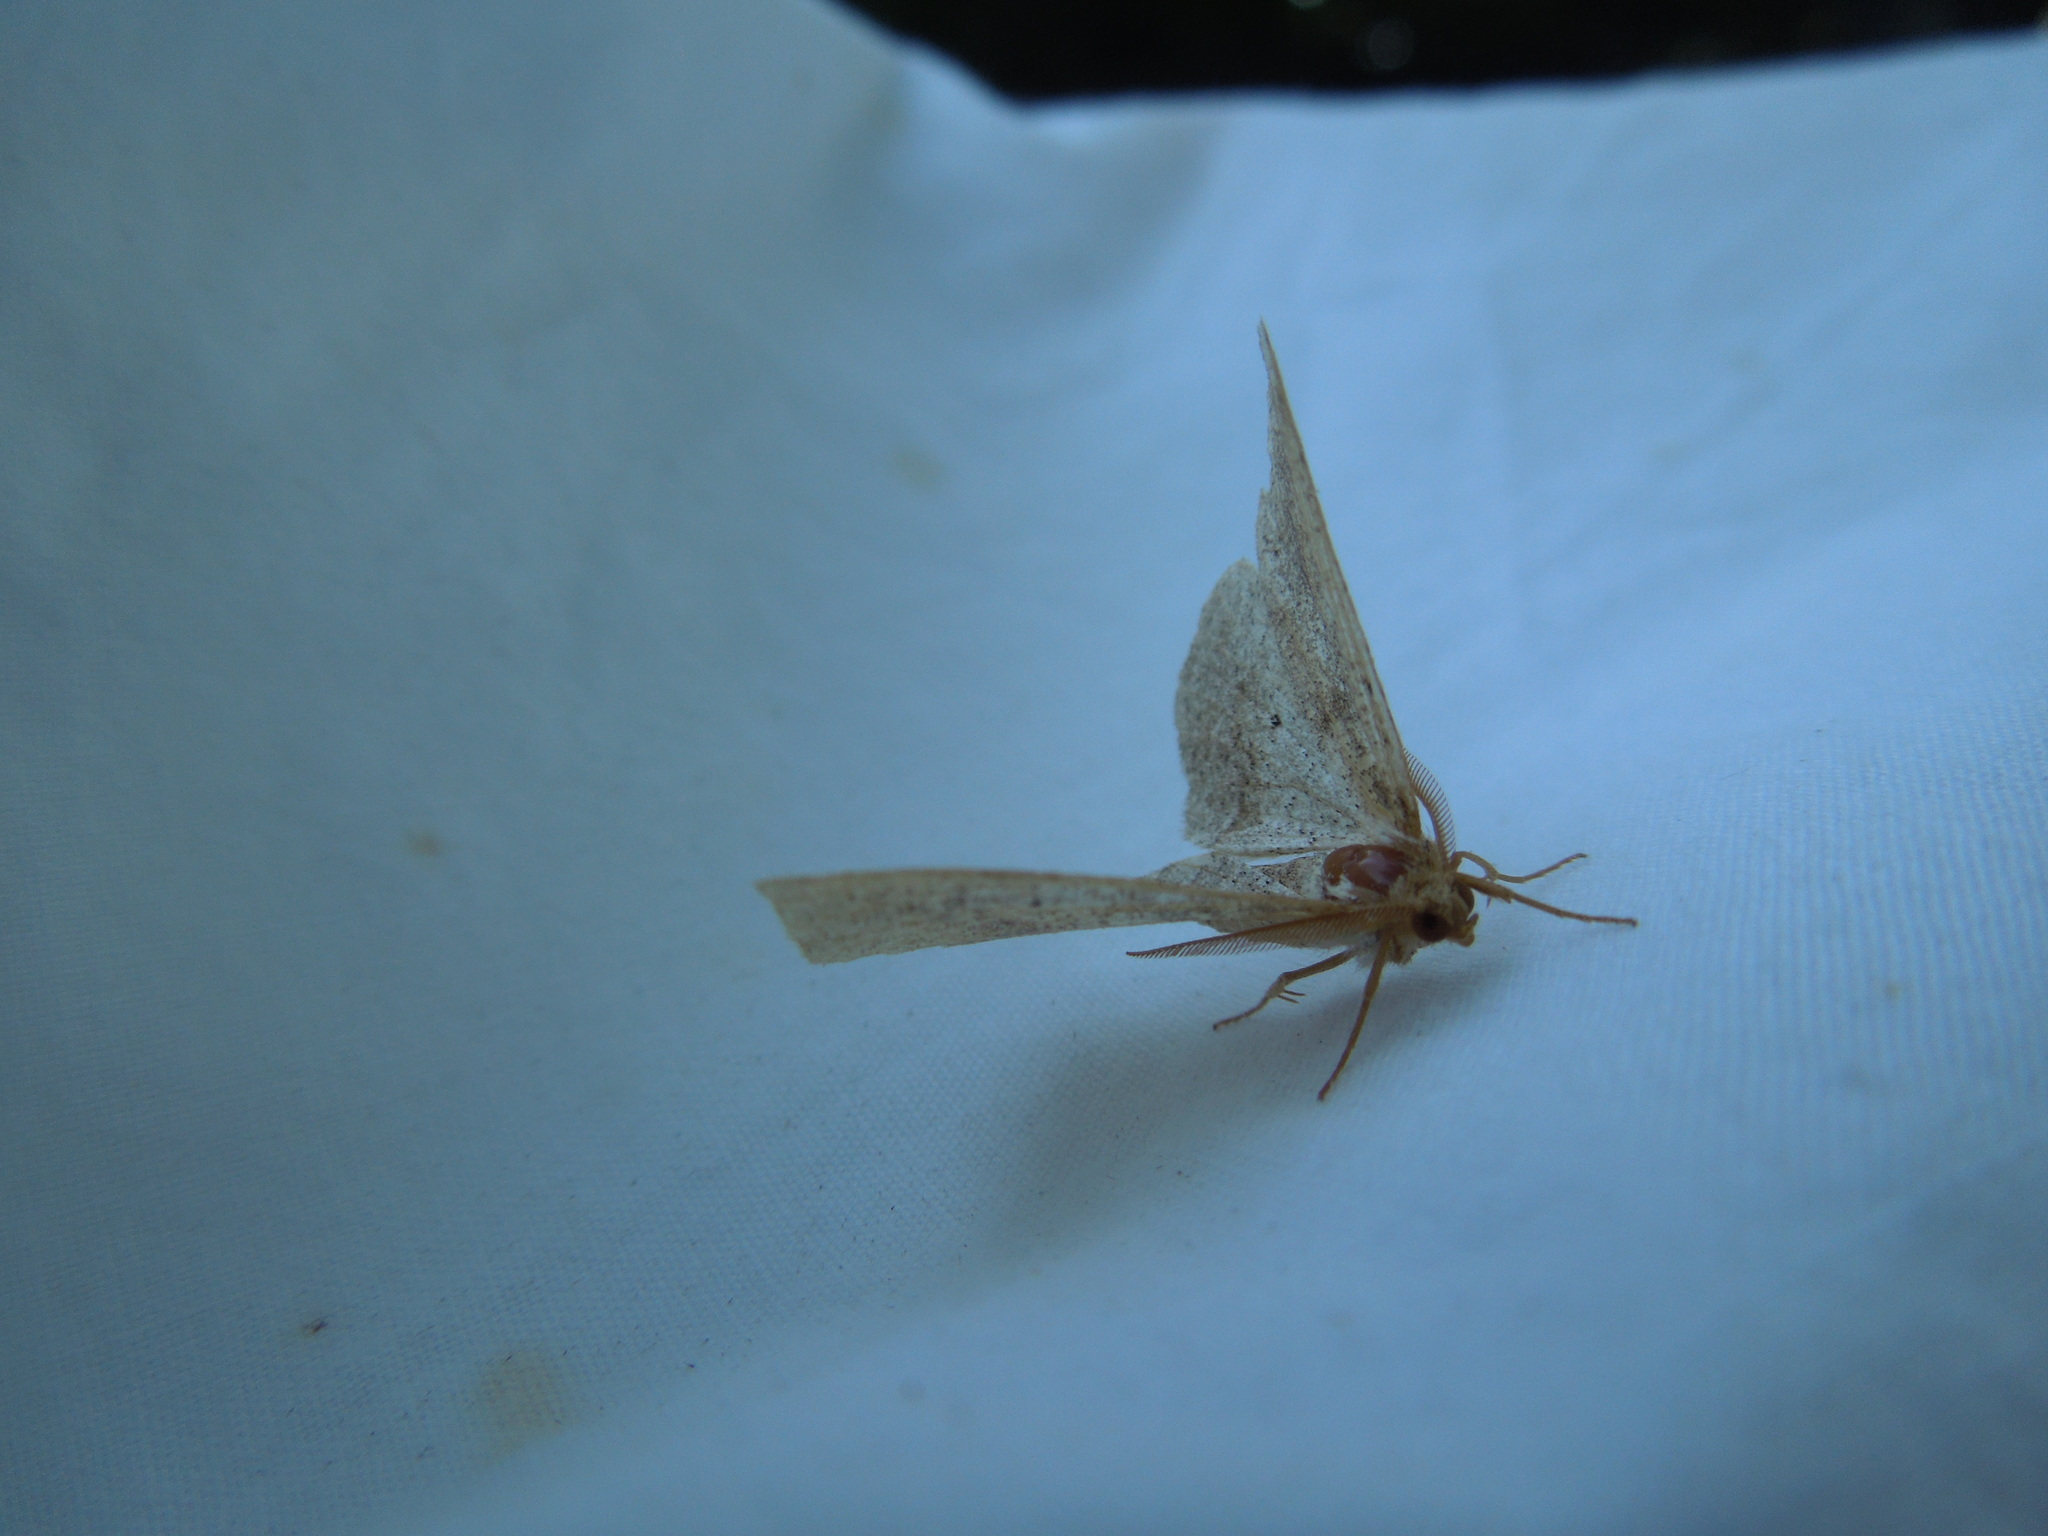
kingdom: Animalia
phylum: Arthropoda
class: Insecta
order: Lepidoptera
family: Geometridae
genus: Metarranthis
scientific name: Metarranthis
